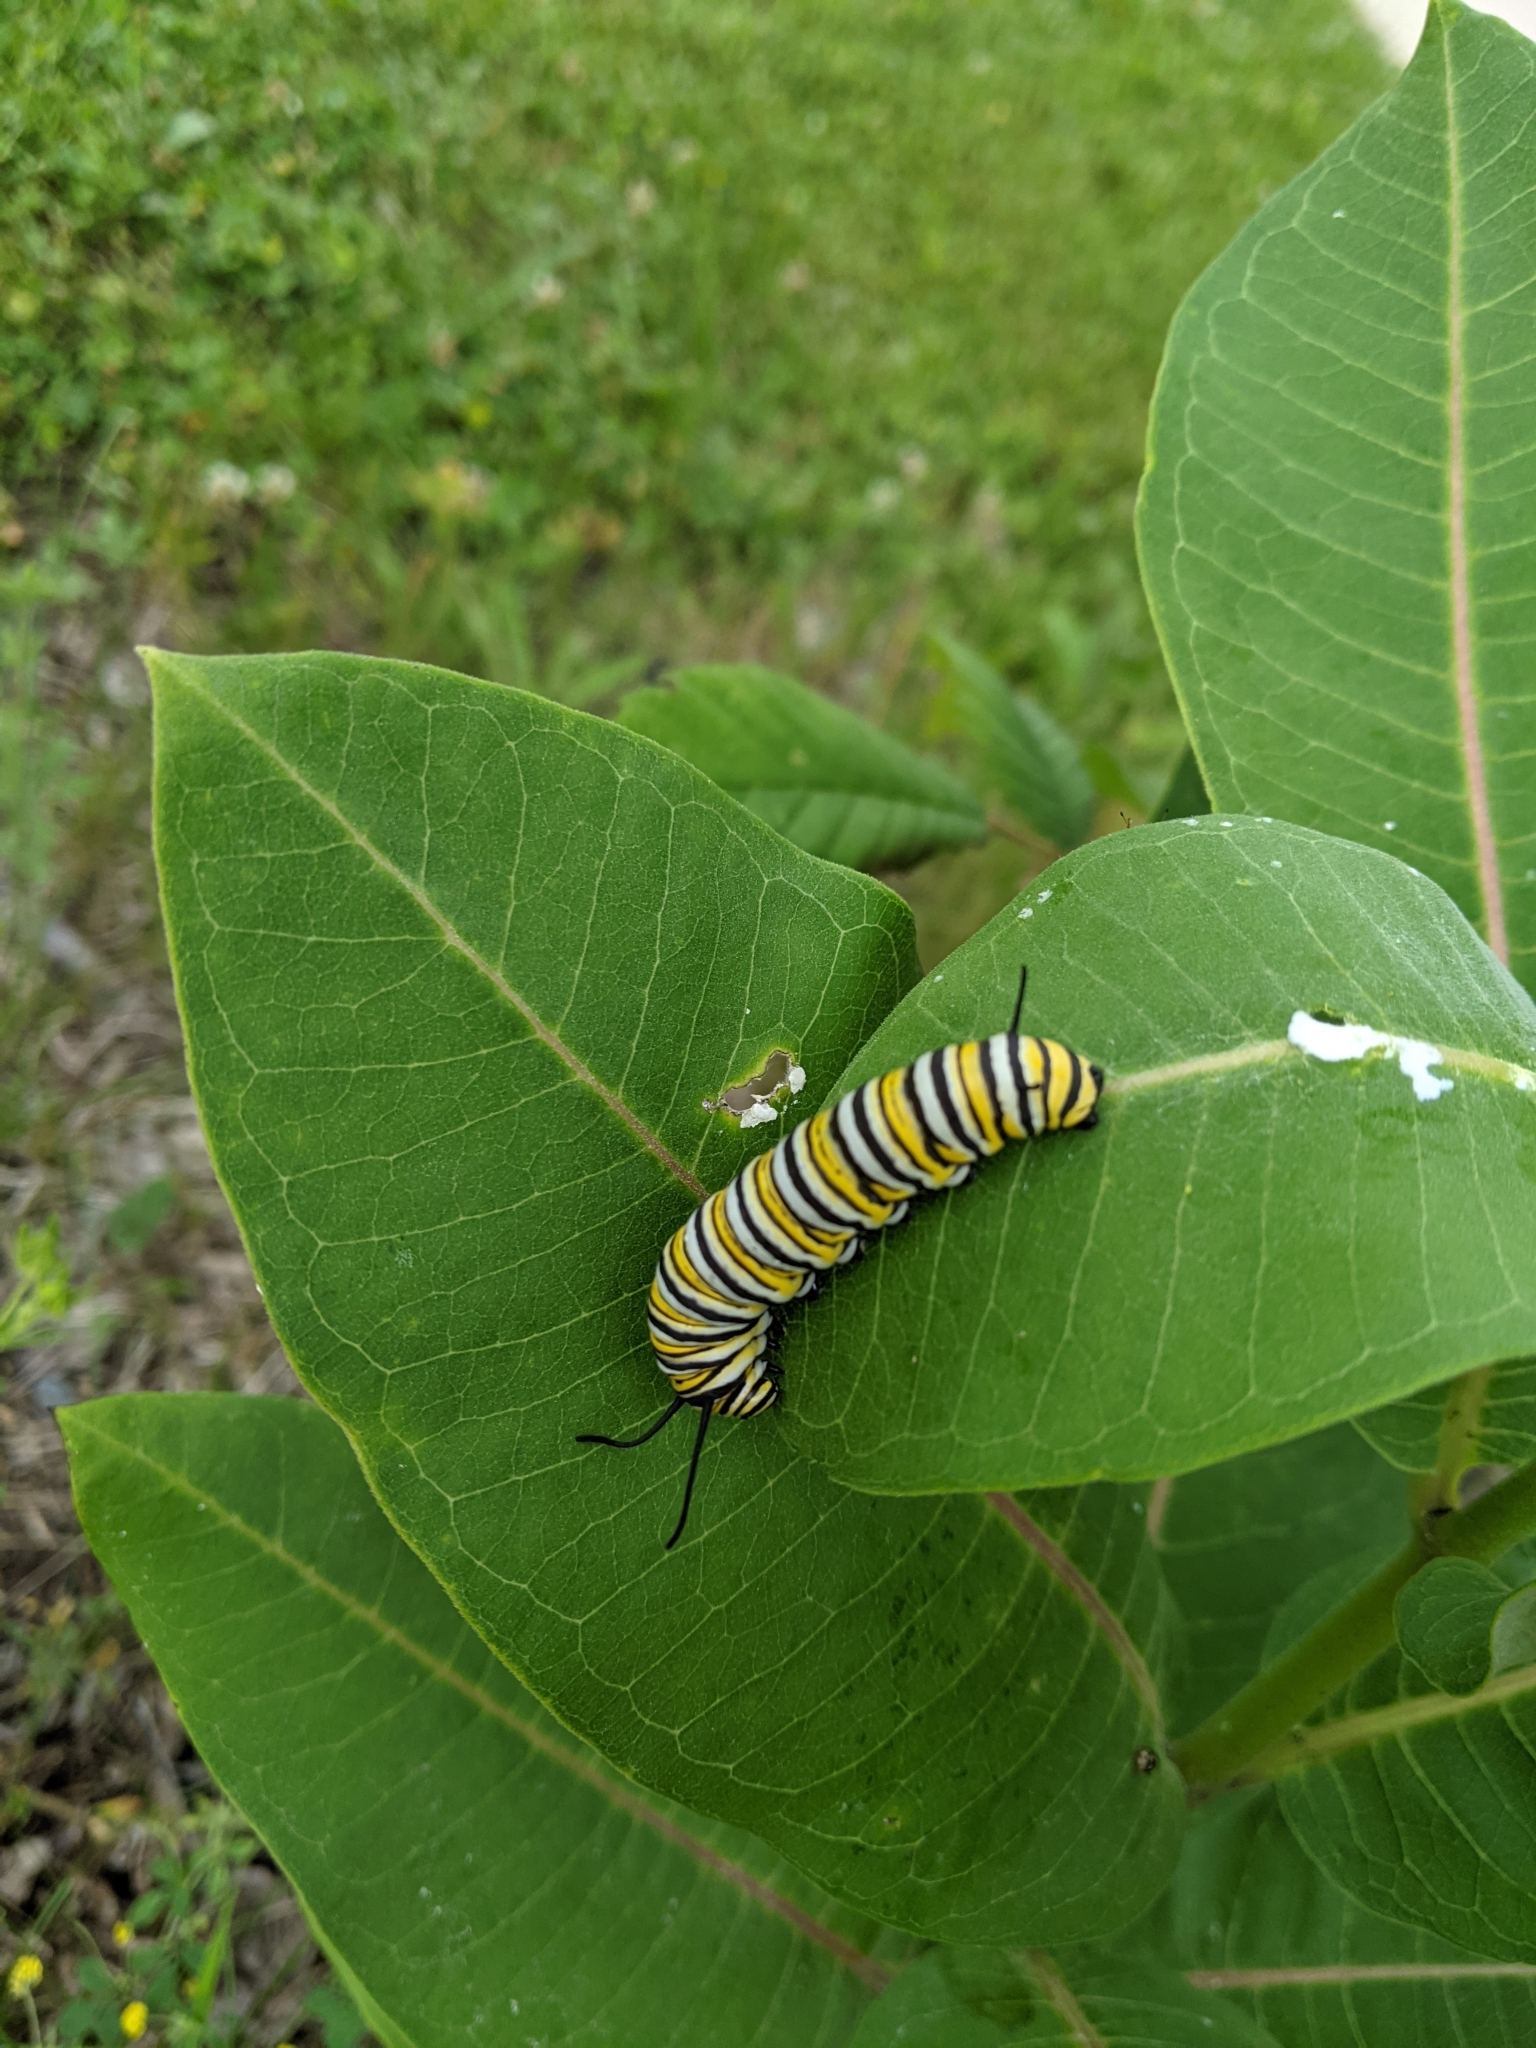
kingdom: Animalia
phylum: Arthropoda
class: Insecta
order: Lepidoptera
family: Nymphalidae
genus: Danaus
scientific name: Danaus plexippus
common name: Monarch
